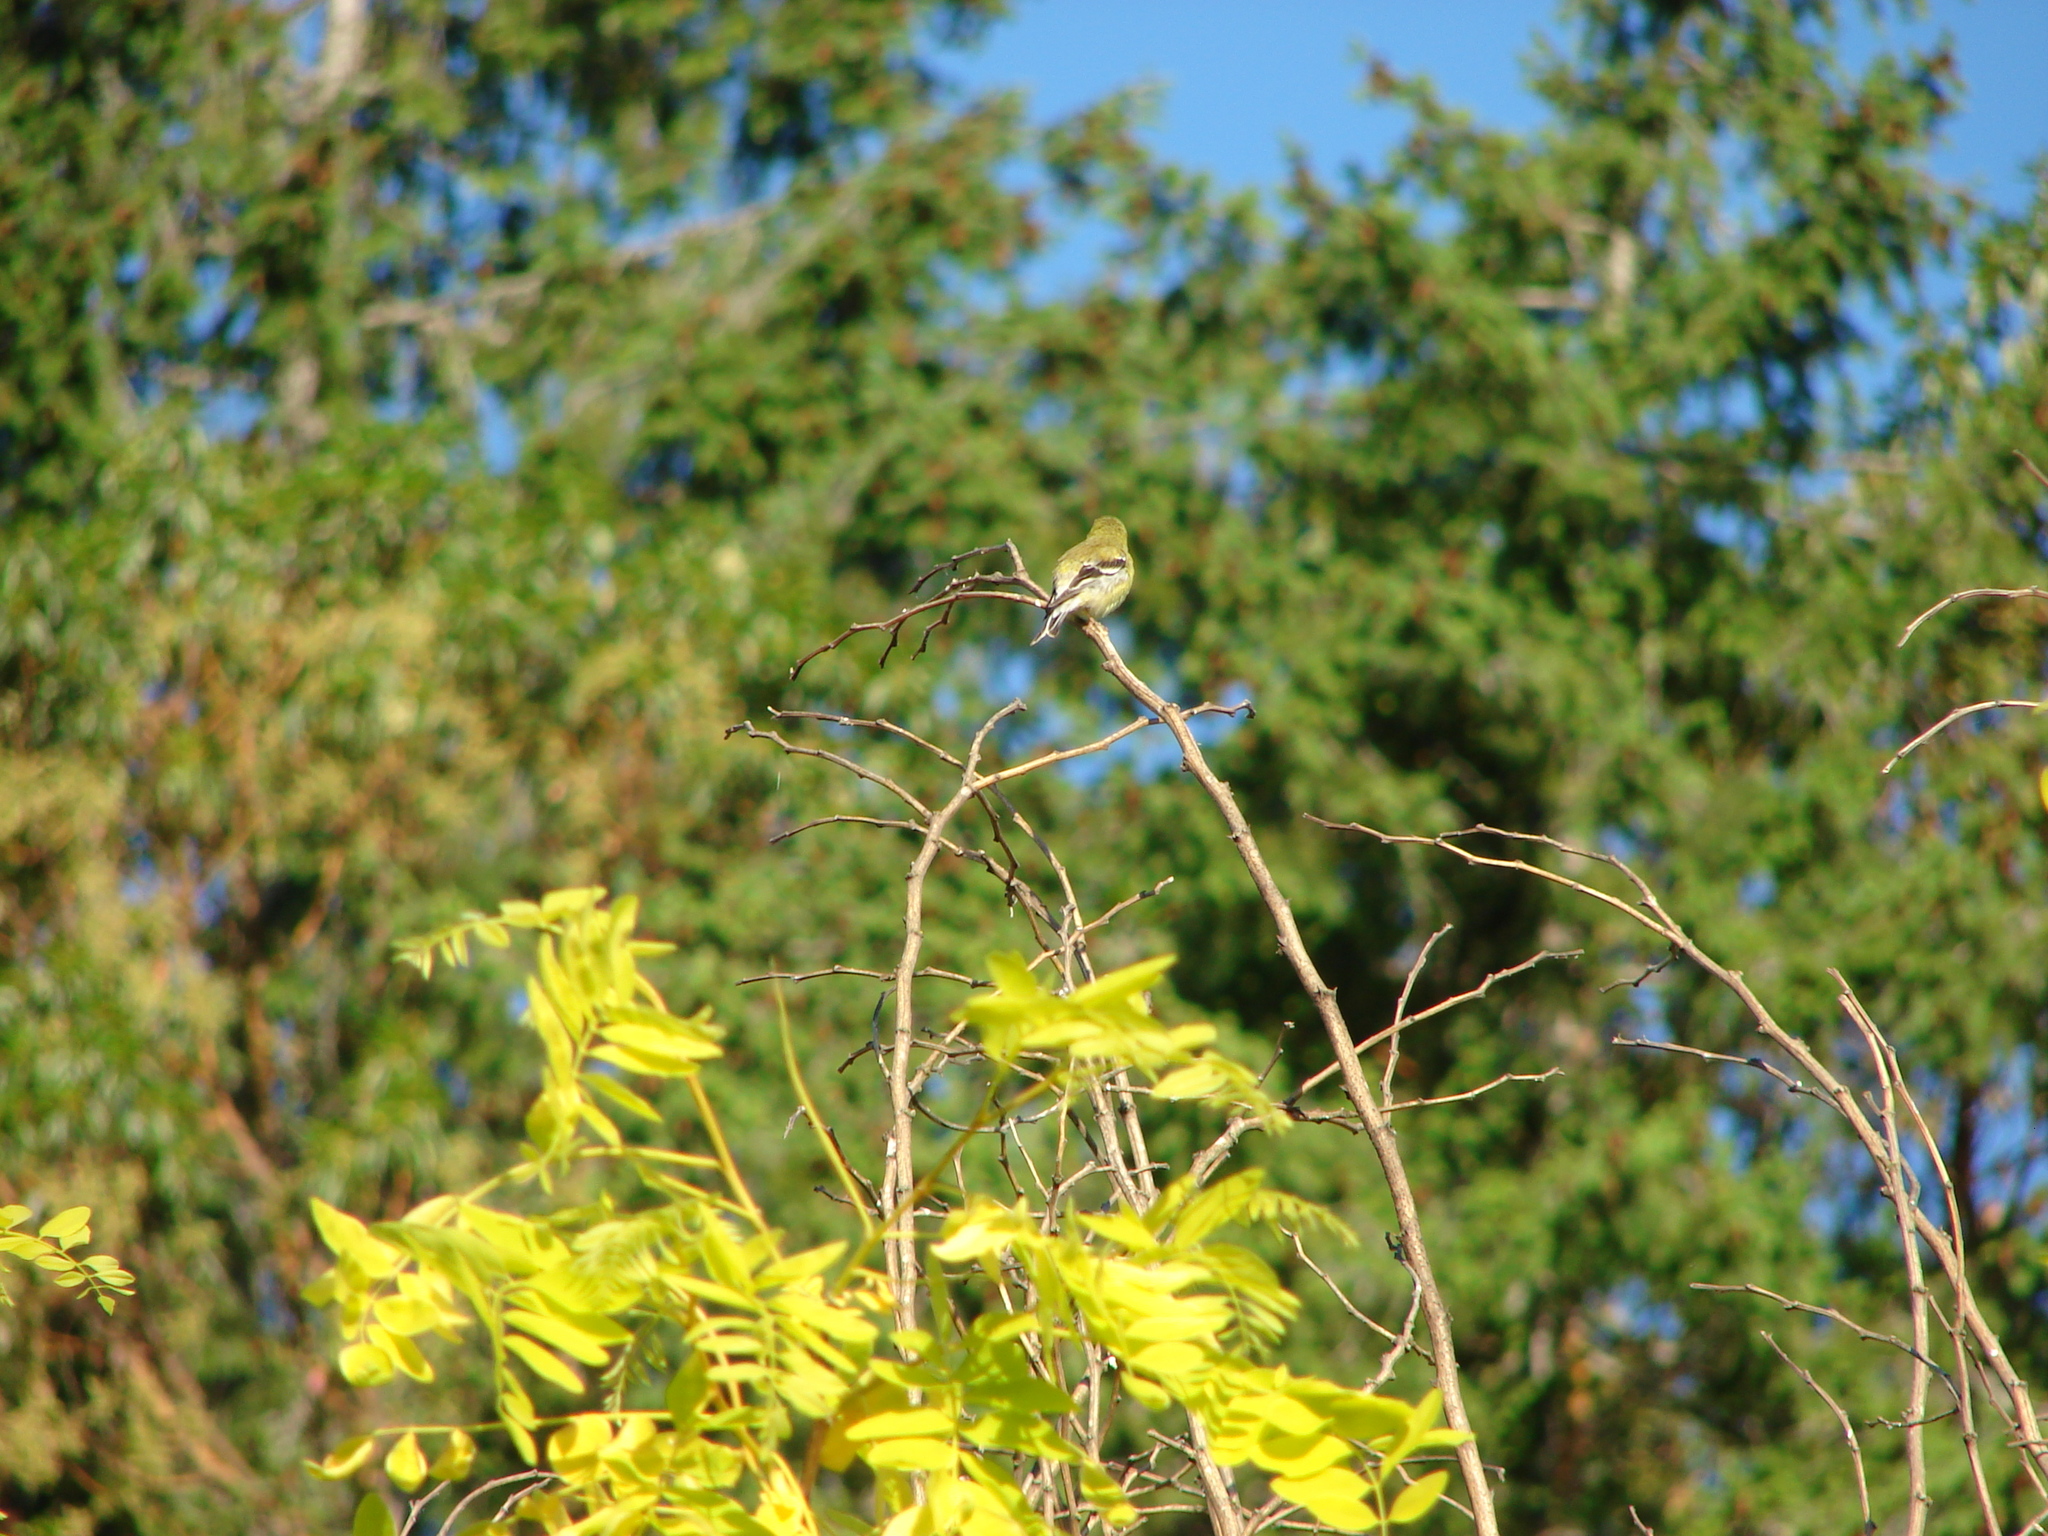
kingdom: Animalia
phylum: Chordata
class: Aves
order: Passeriformes
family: Fringillidae
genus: Spinus
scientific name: Spinus tristis
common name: American goldfinch
